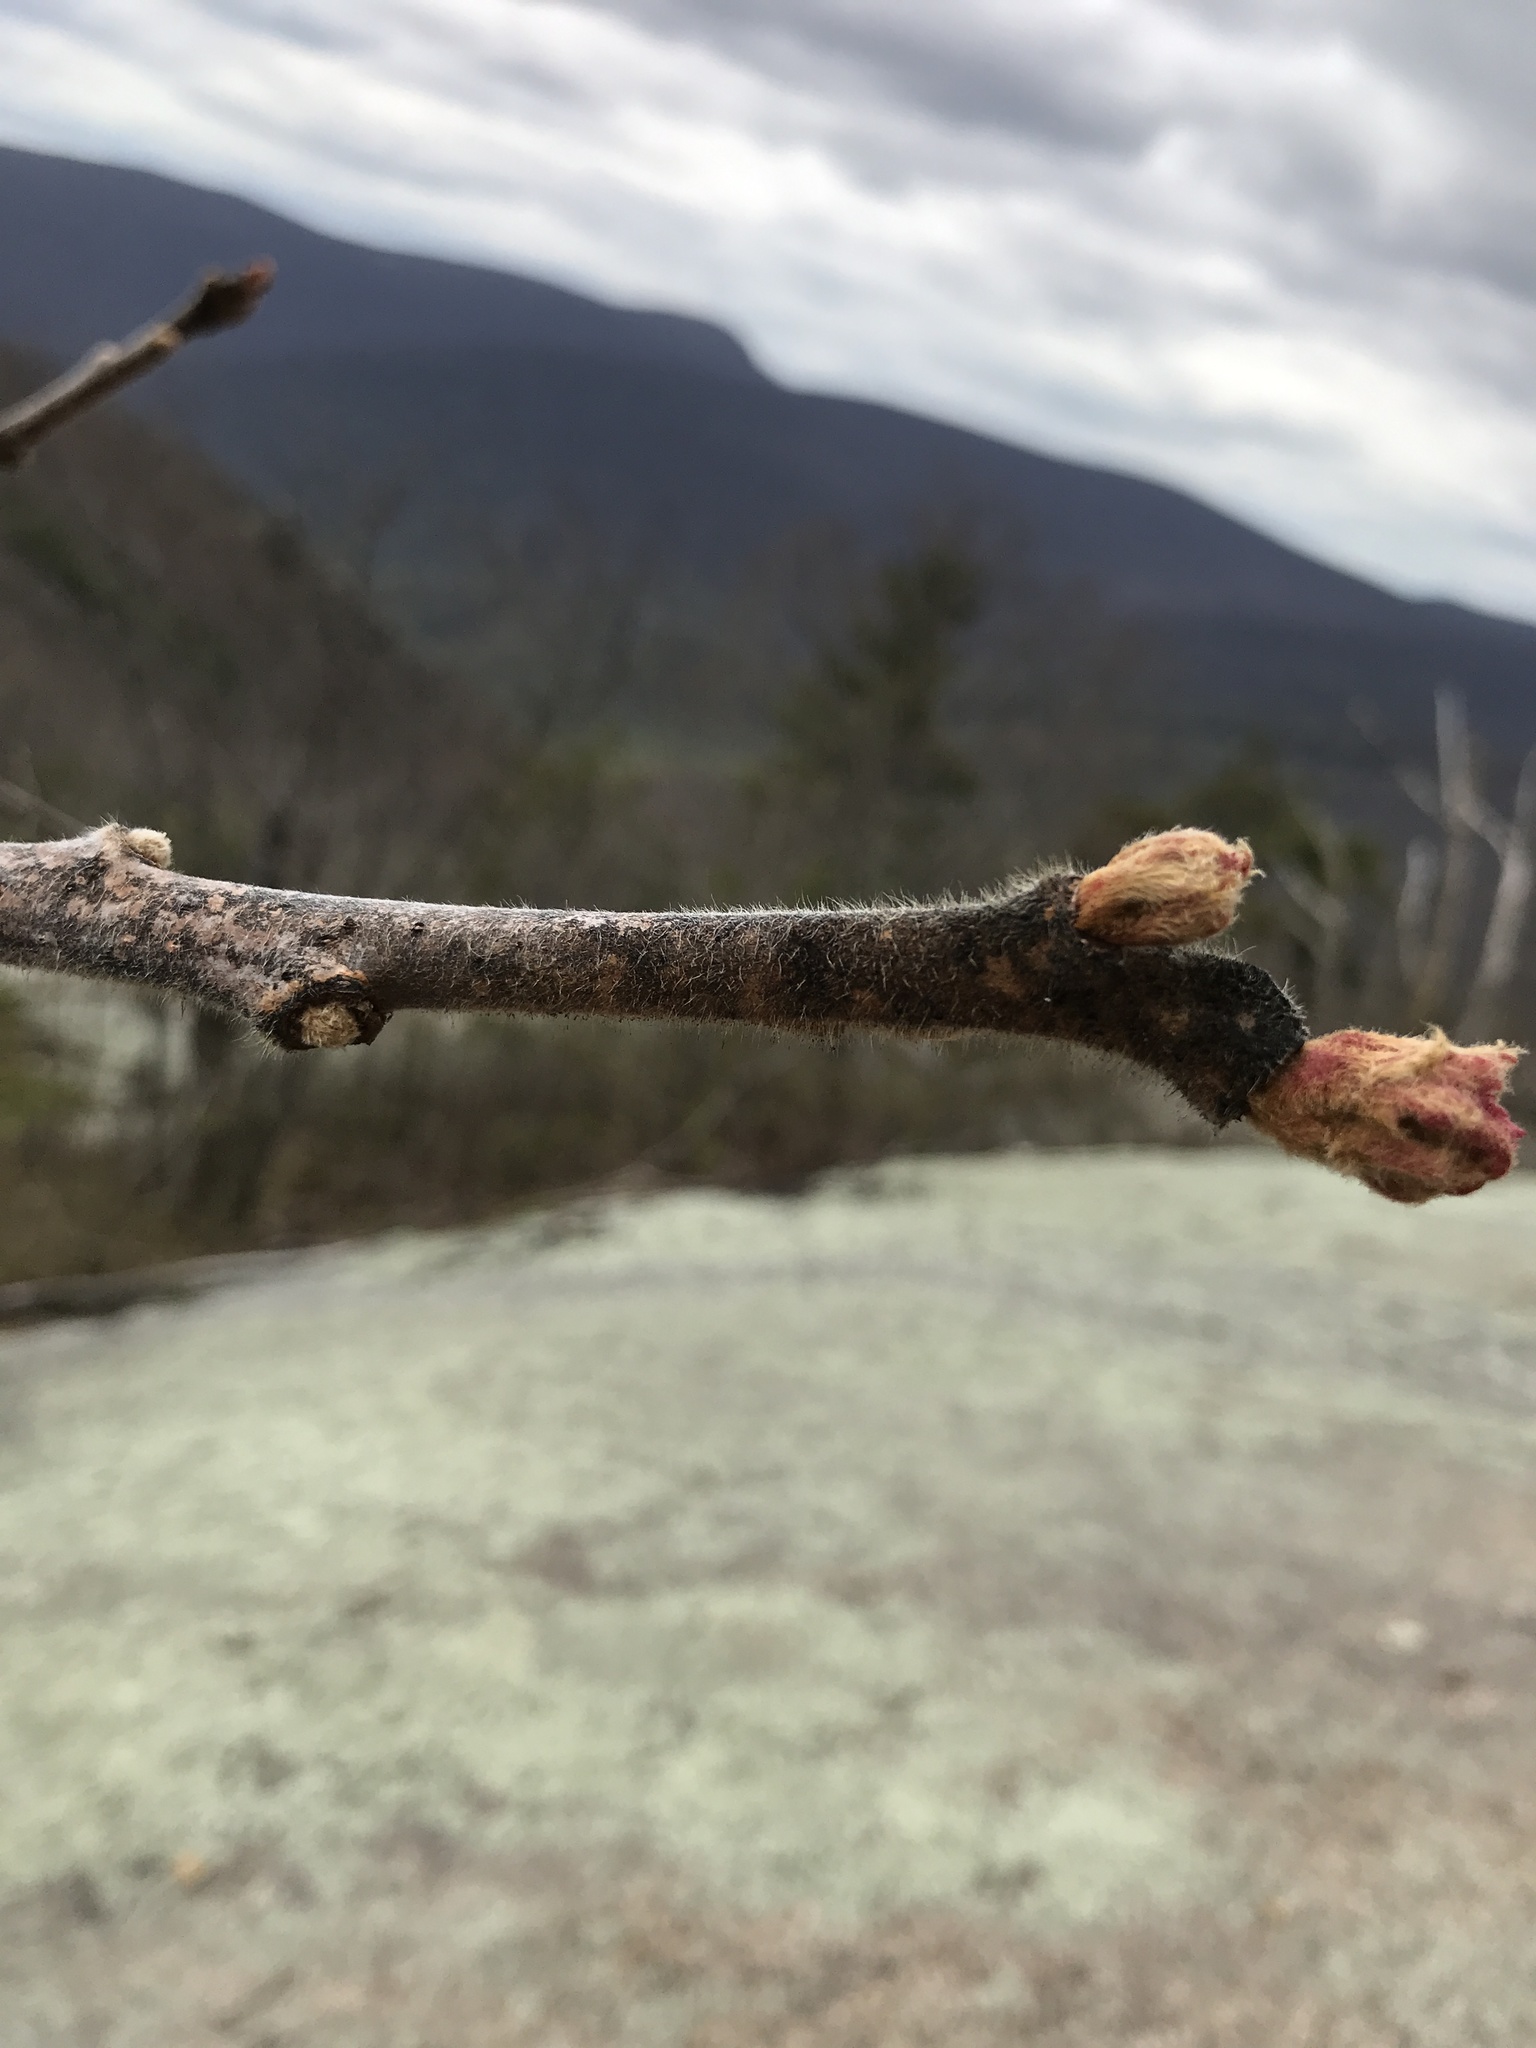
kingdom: Plantae
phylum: Tracheophyta
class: Magnoliopsida
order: Sapindales
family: Anacardiaceae
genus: Rhus
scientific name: Rhus typhina
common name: Staghorn sumac
